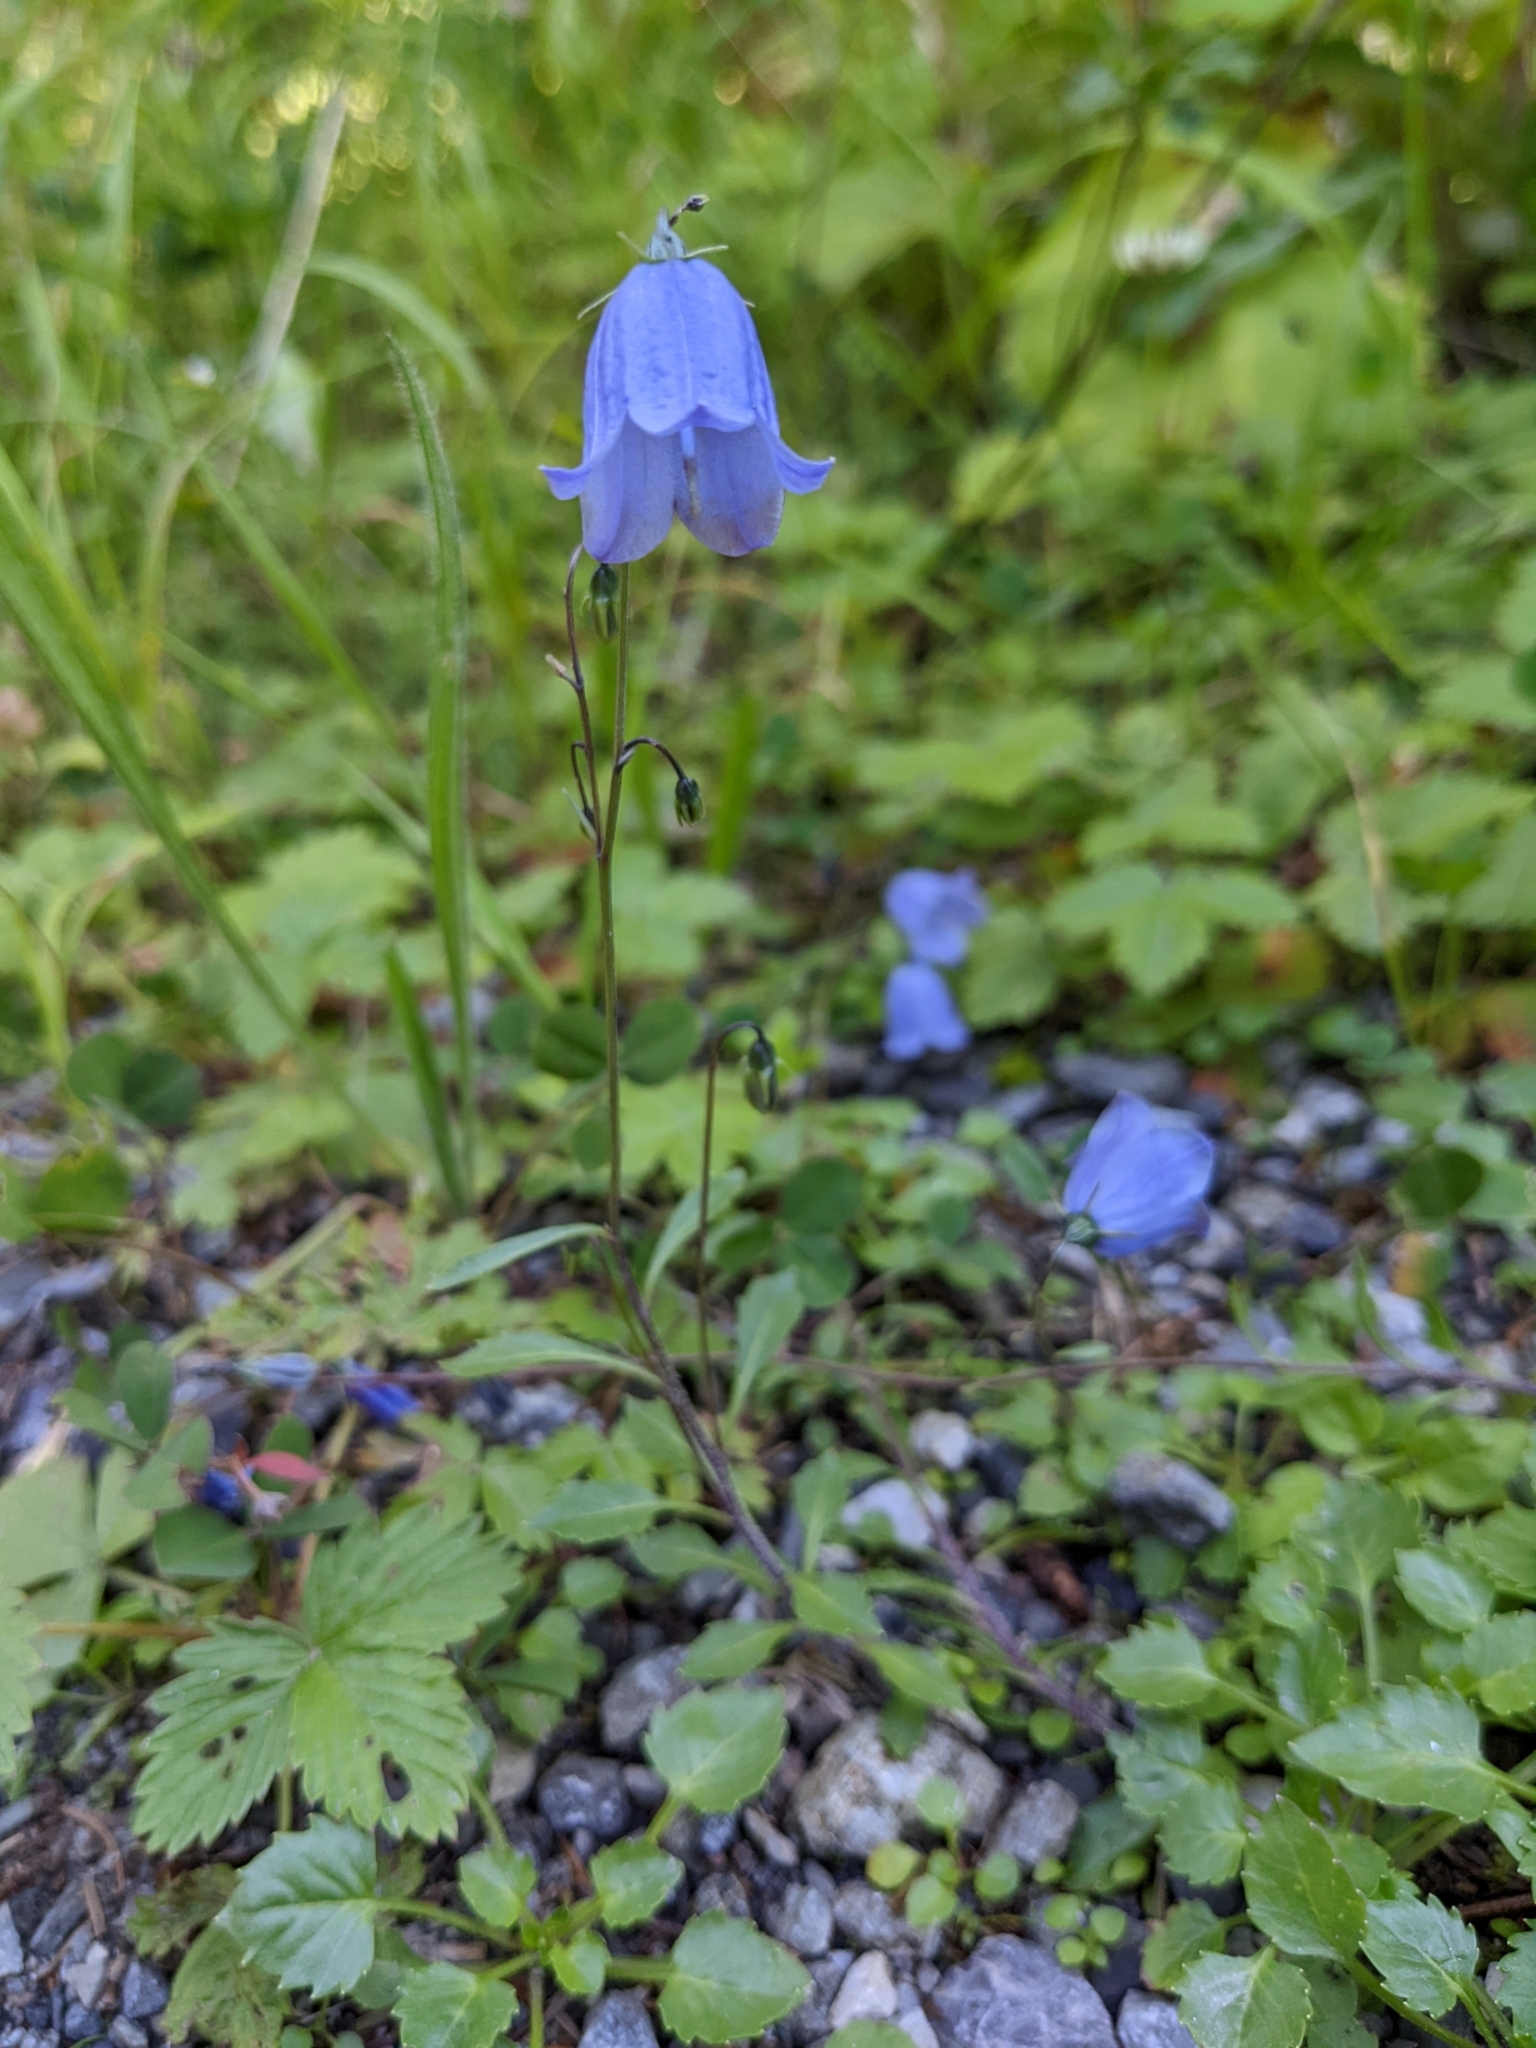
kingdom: Plantae
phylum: Tracheophyta
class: Magnoliopsida
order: Asterales
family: Campanulaceae
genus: Campanula
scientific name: Campanula cochleariifolia
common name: Fairies'-thimbles
